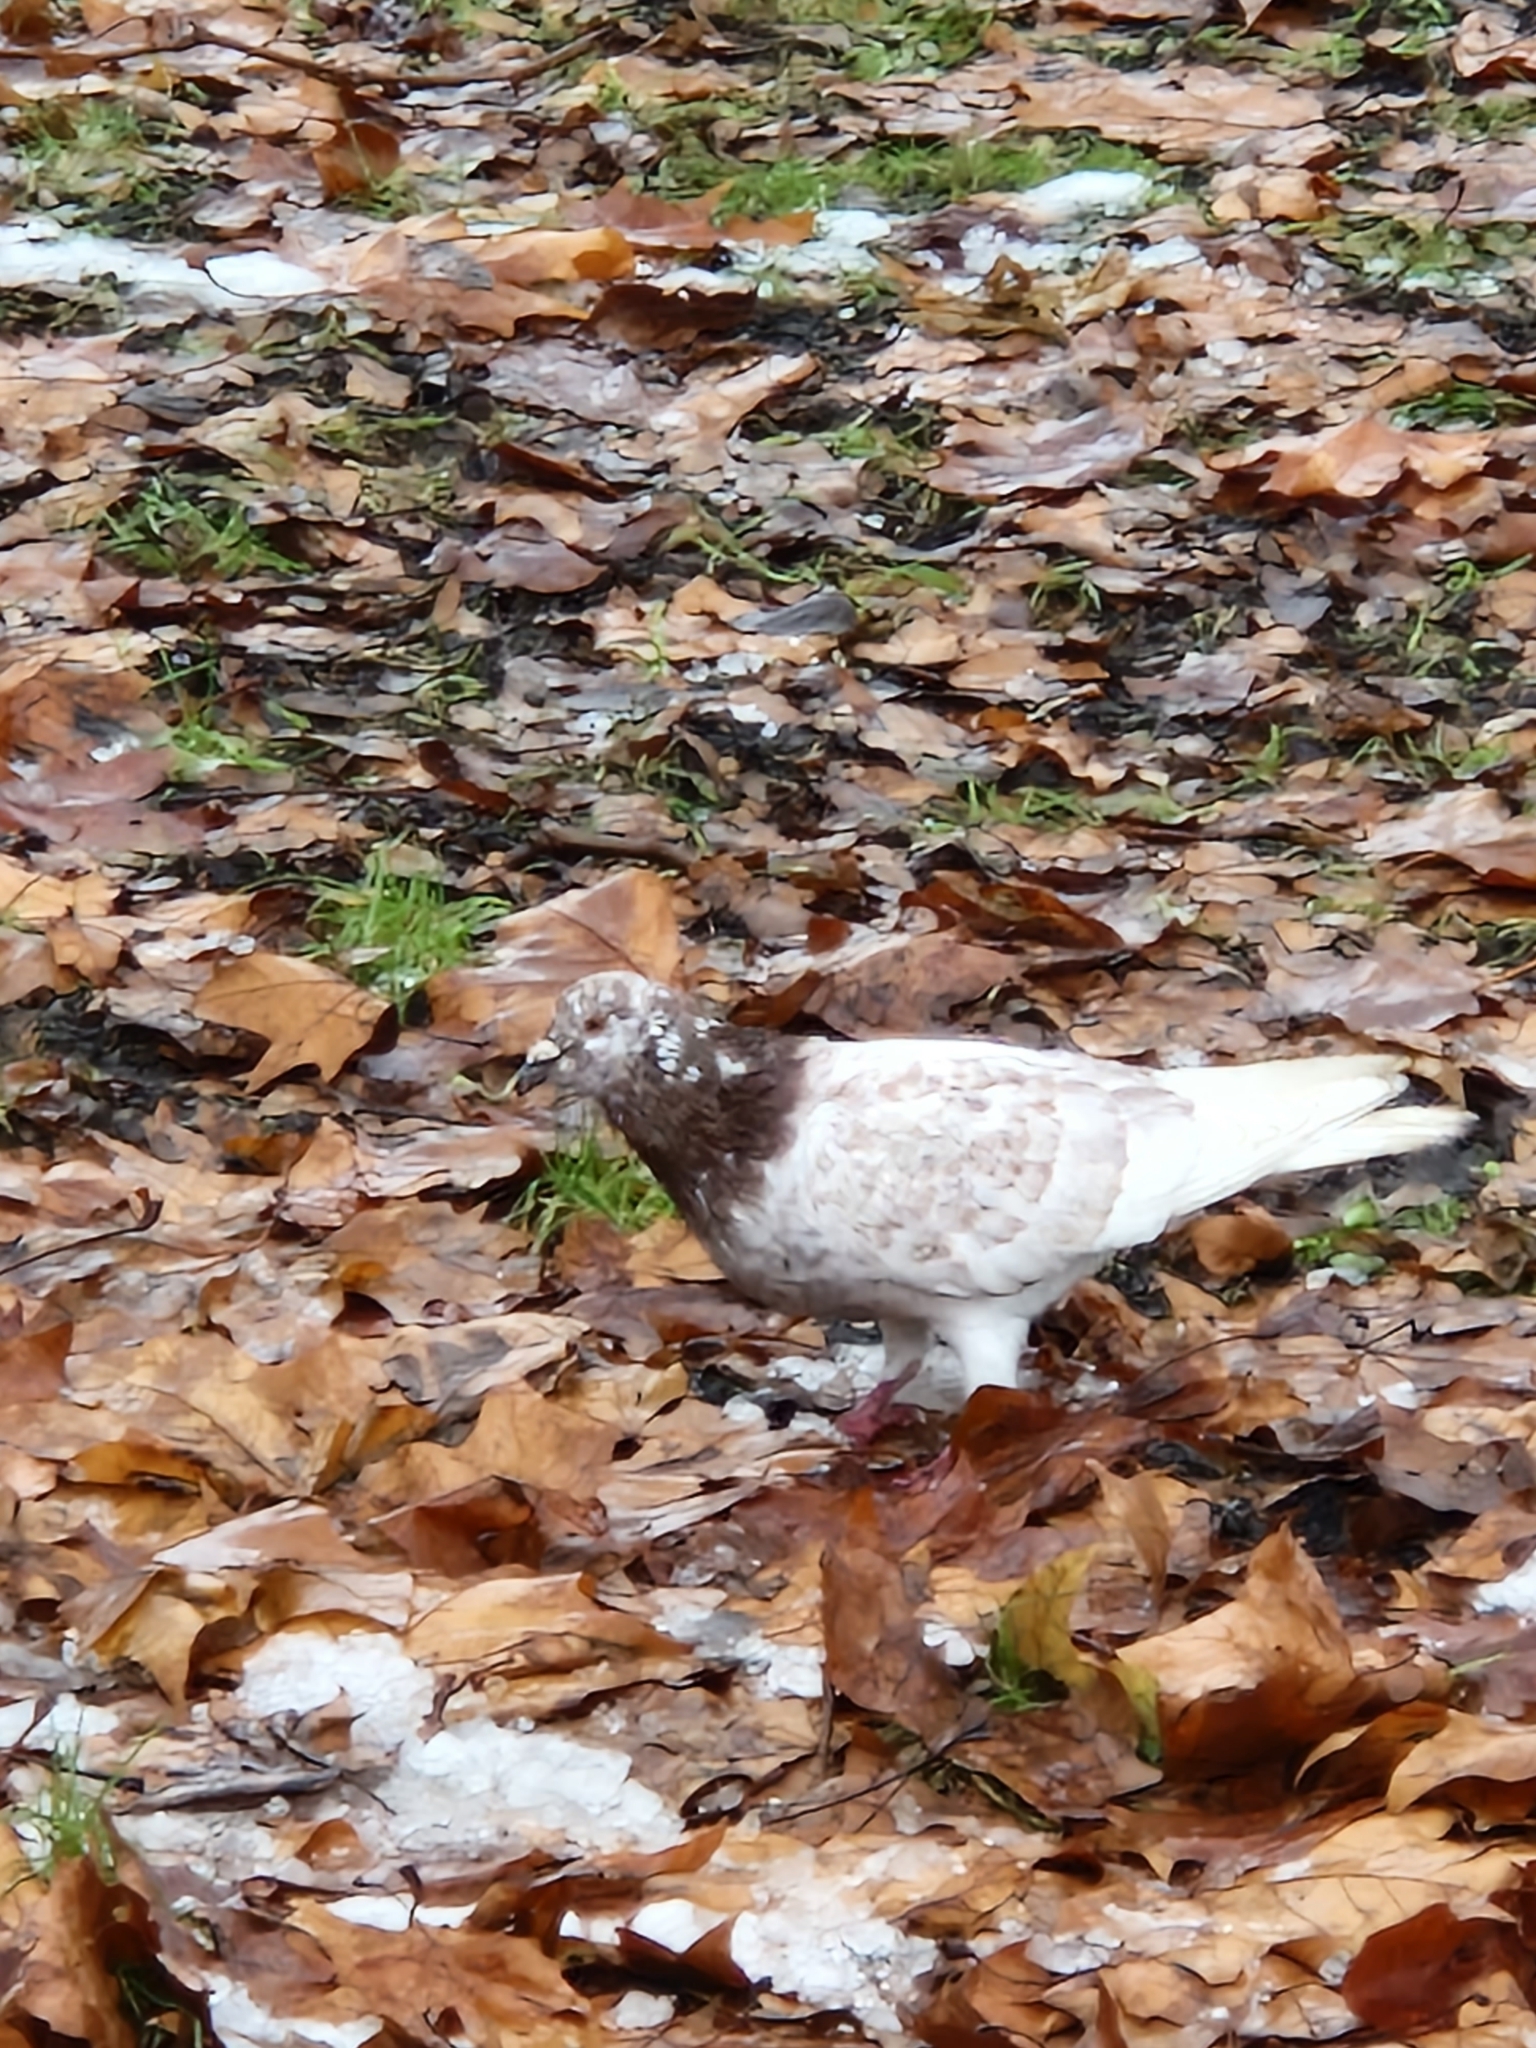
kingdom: Animalia
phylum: Chordata
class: Aves
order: Columbiformes
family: Columbidae
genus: Columba
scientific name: Columba livia
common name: Rock pigeon
